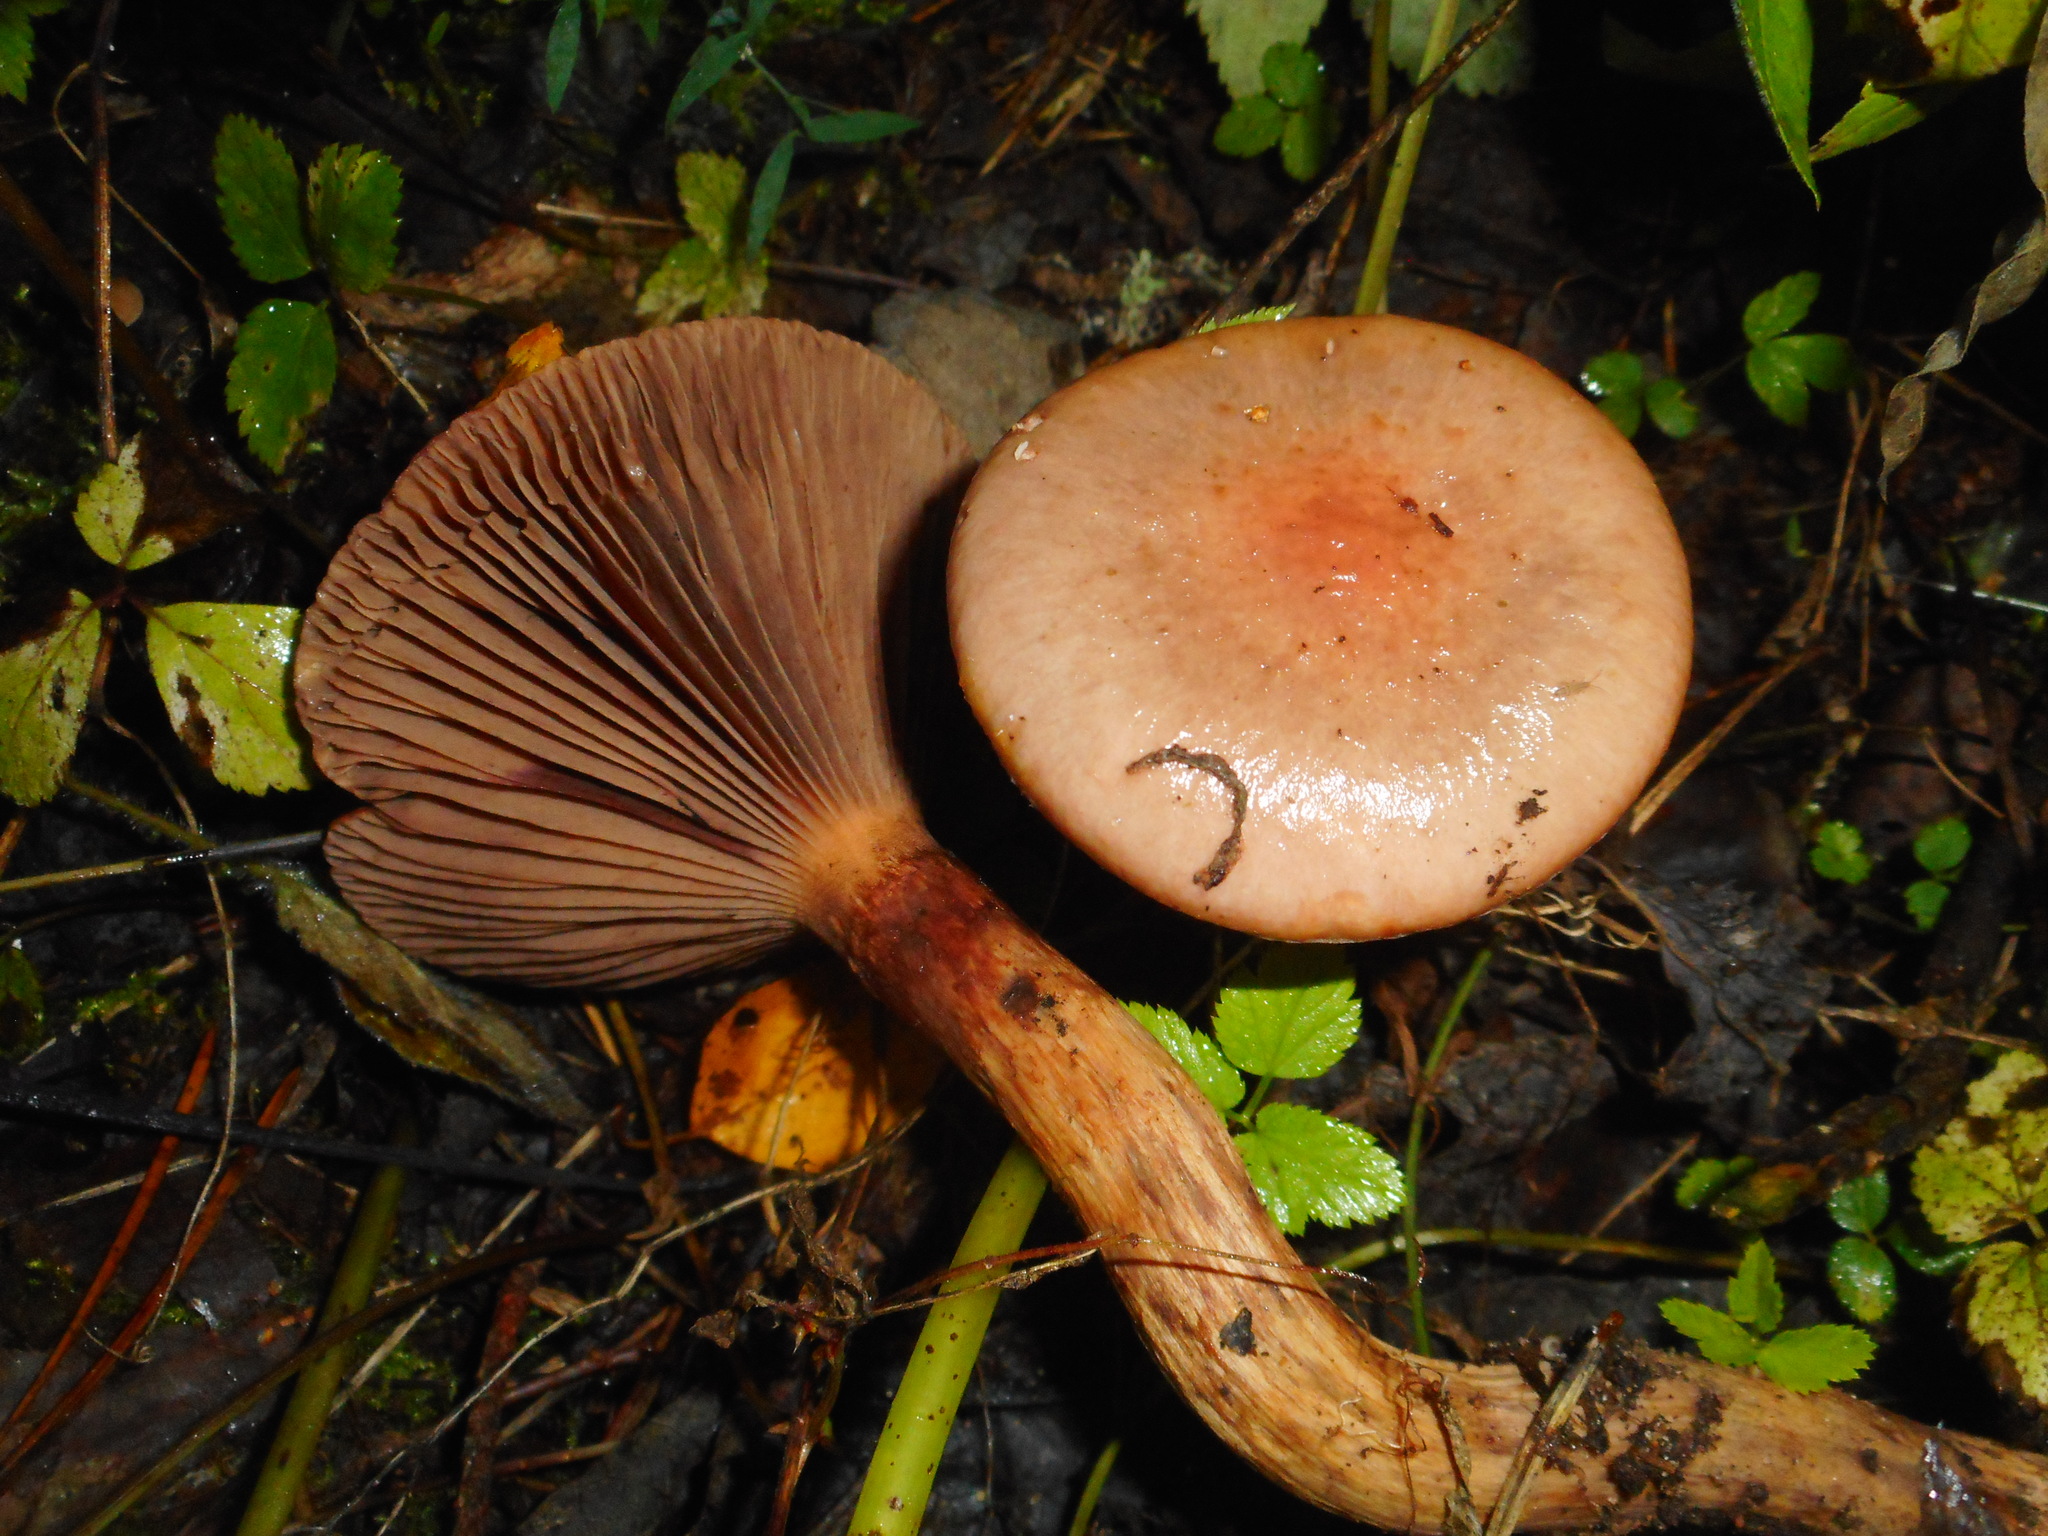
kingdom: Fungi
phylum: Basidiomycota
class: Agaricomycetes
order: Boletales
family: Gomphidiaceae
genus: Chroogomphus
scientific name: Chroogomphus rutilus
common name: Copper spike
